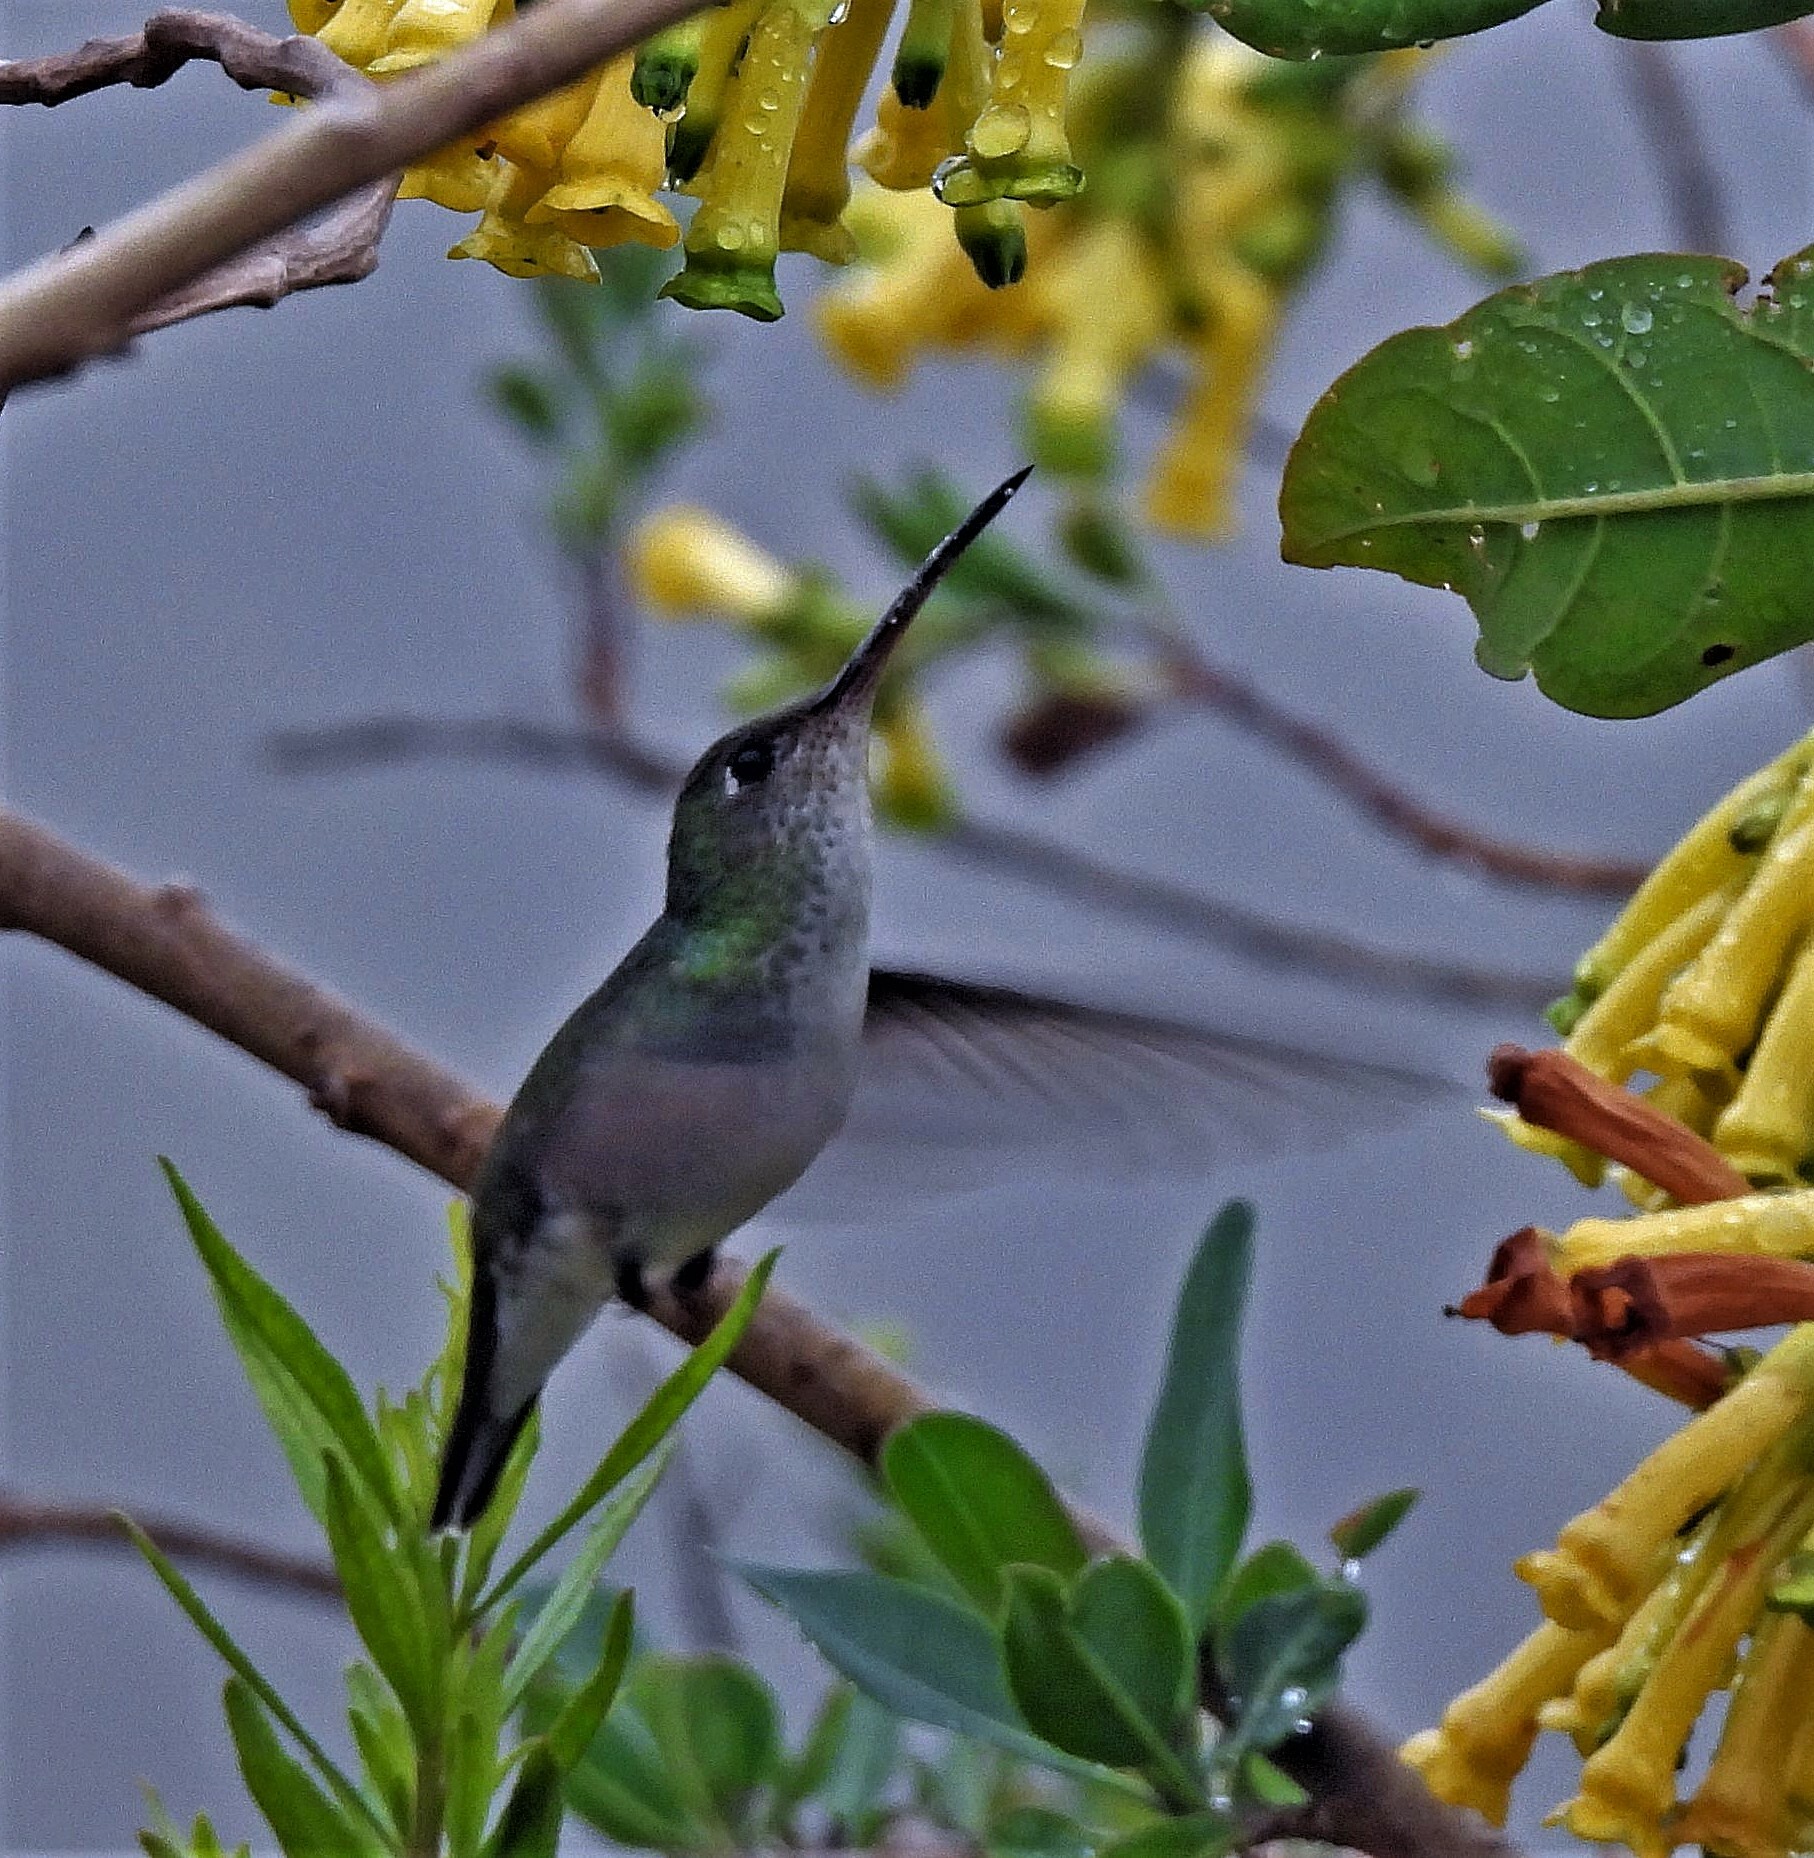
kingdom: Animalia
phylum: Chordata
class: Aves
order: Apodiformes
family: Trochilidae
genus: Elliotomyia
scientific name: Elliotomyia chionogaster
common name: White-bellied hummingbird
